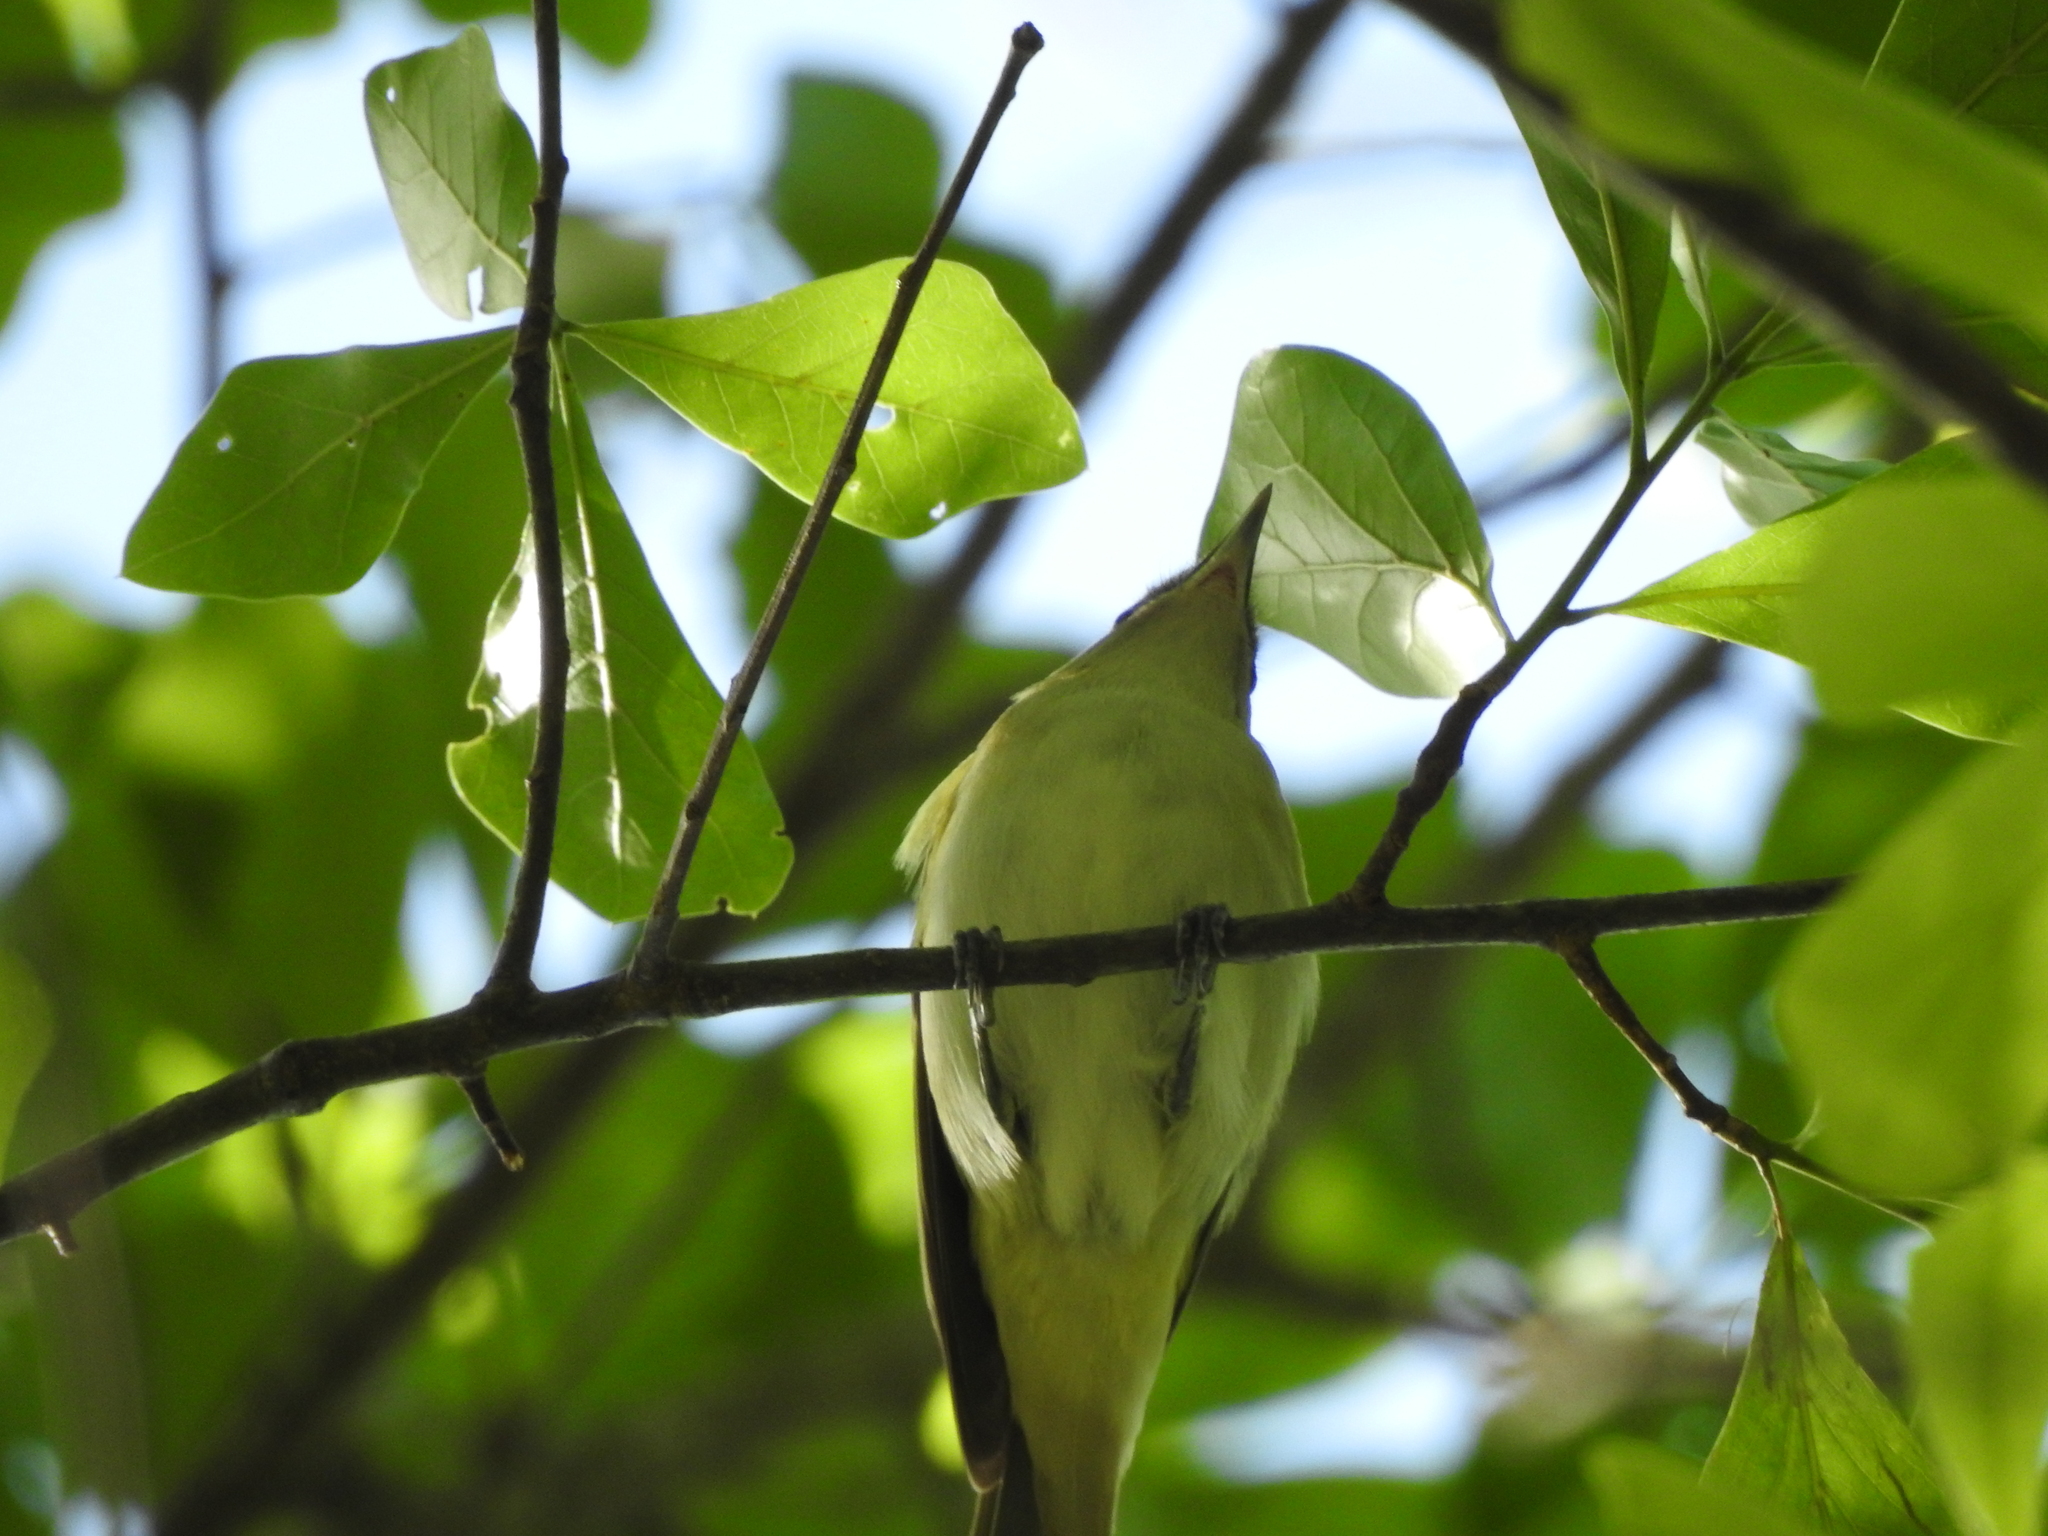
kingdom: Animalia
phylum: Chordata
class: Aves
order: Passeriformes
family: Vireonidae
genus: Vireo
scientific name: Vireo olivaceus
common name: Red-eyed vireo
